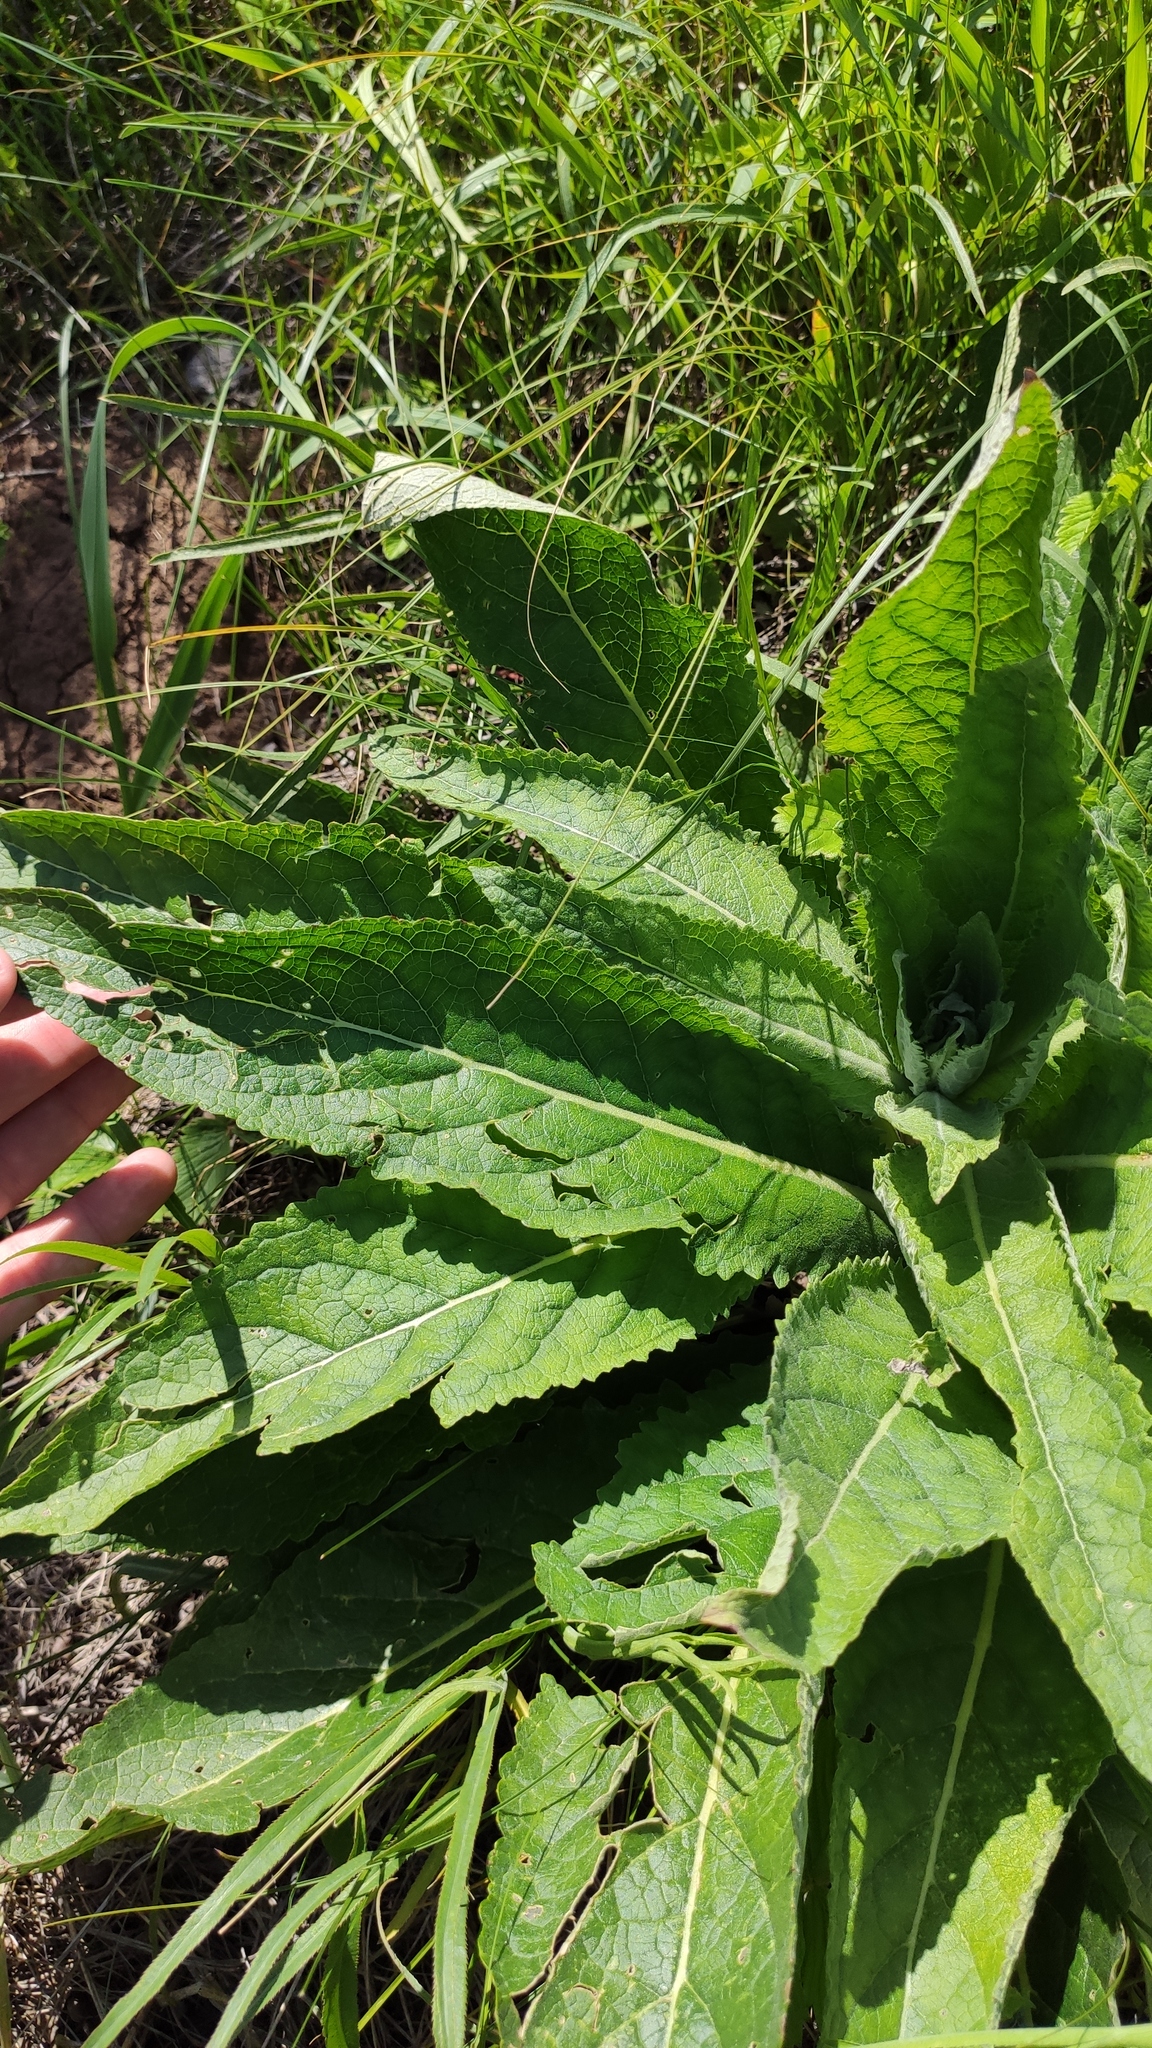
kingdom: Plantae
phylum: Tracheophyta
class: Magnoliopsida
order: Lamiales
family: Scrophulariaceae
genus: Verbascum
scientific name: Verbascum lychnitis
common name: White mullein
